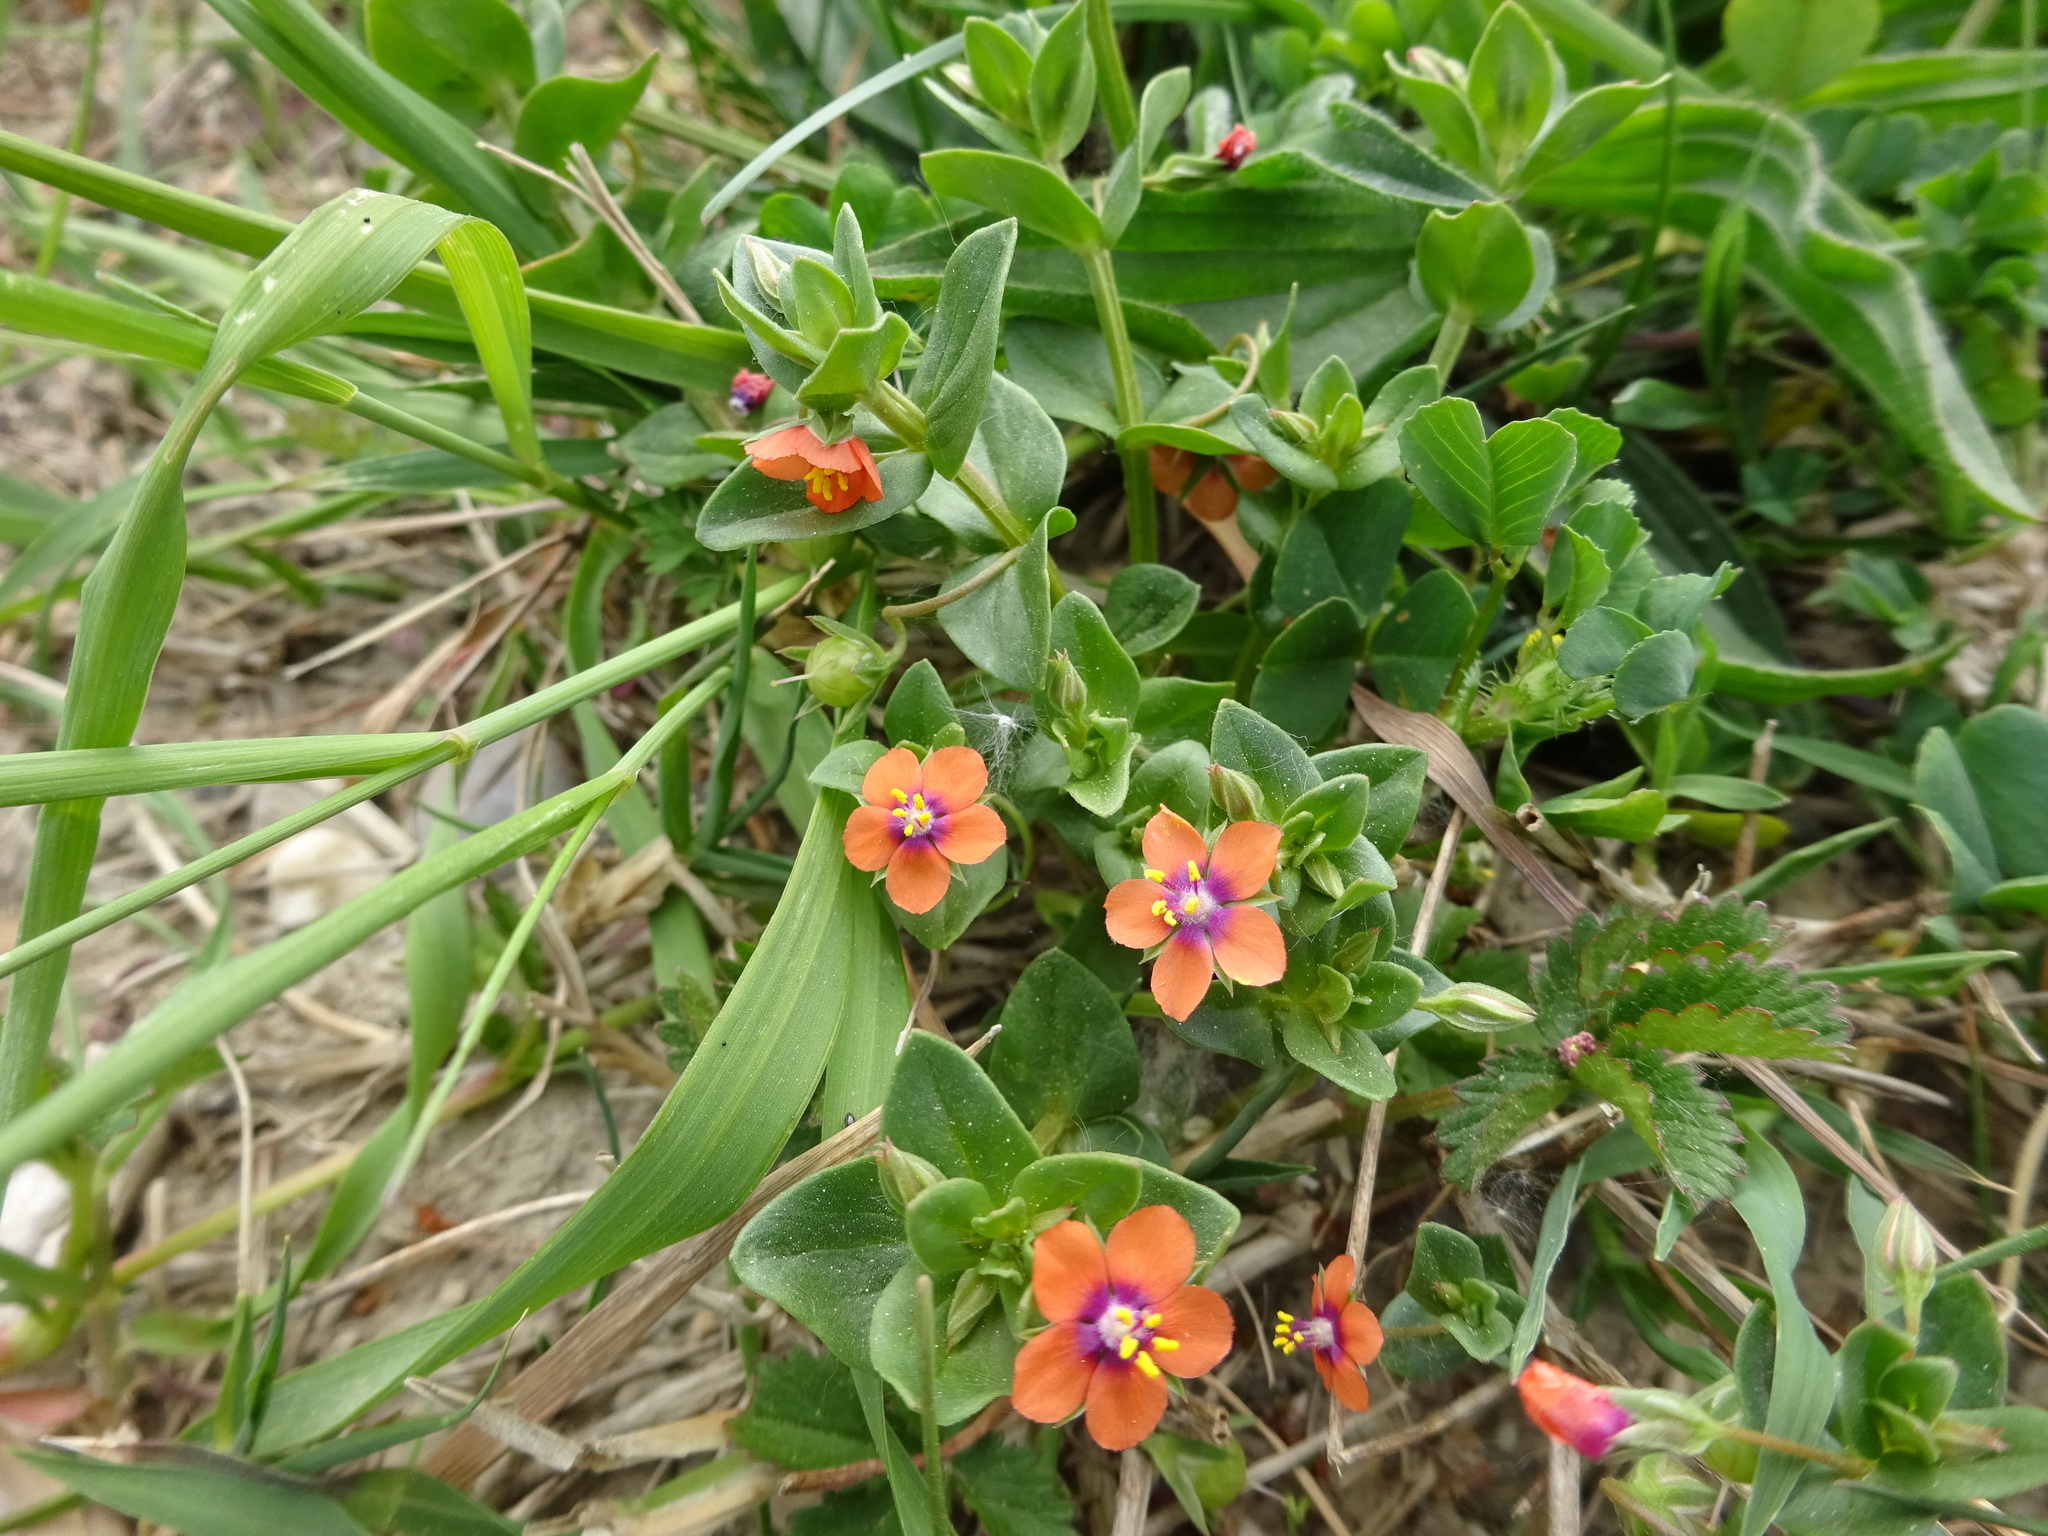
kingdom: Plantae
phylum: Tracheophyta
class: Magnoliopsida
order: Ericales
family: Primulaceae
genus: Lysimachia
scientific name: Lysimachia arvensis
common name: Scarlet pimpernel
